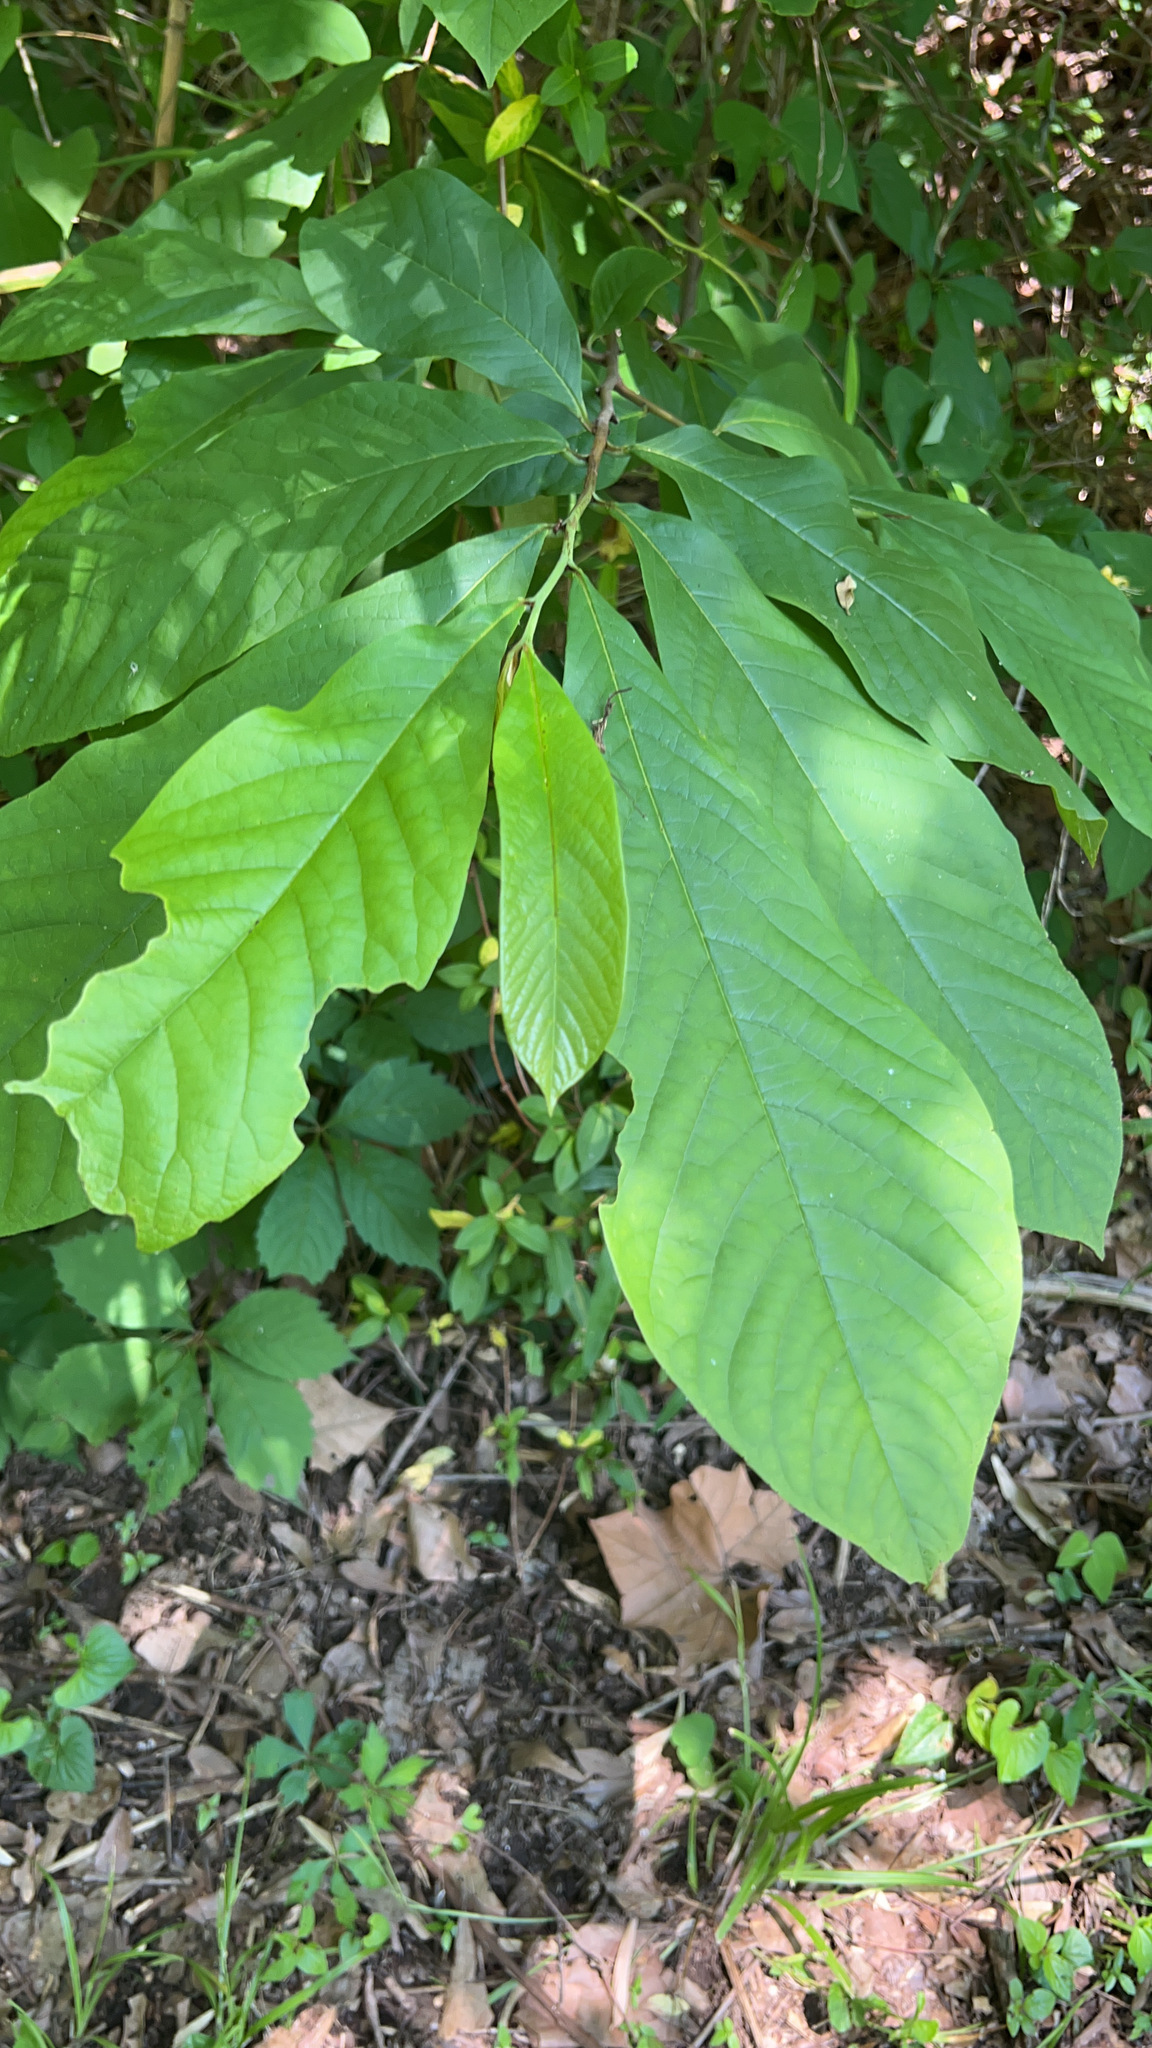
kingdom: Plantae
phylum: Tracheophyta
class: Magnoliopsida
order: Magnoliales
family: Annonaceae
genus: Asimina
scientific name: Asimina triloba
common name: Dog-banana
